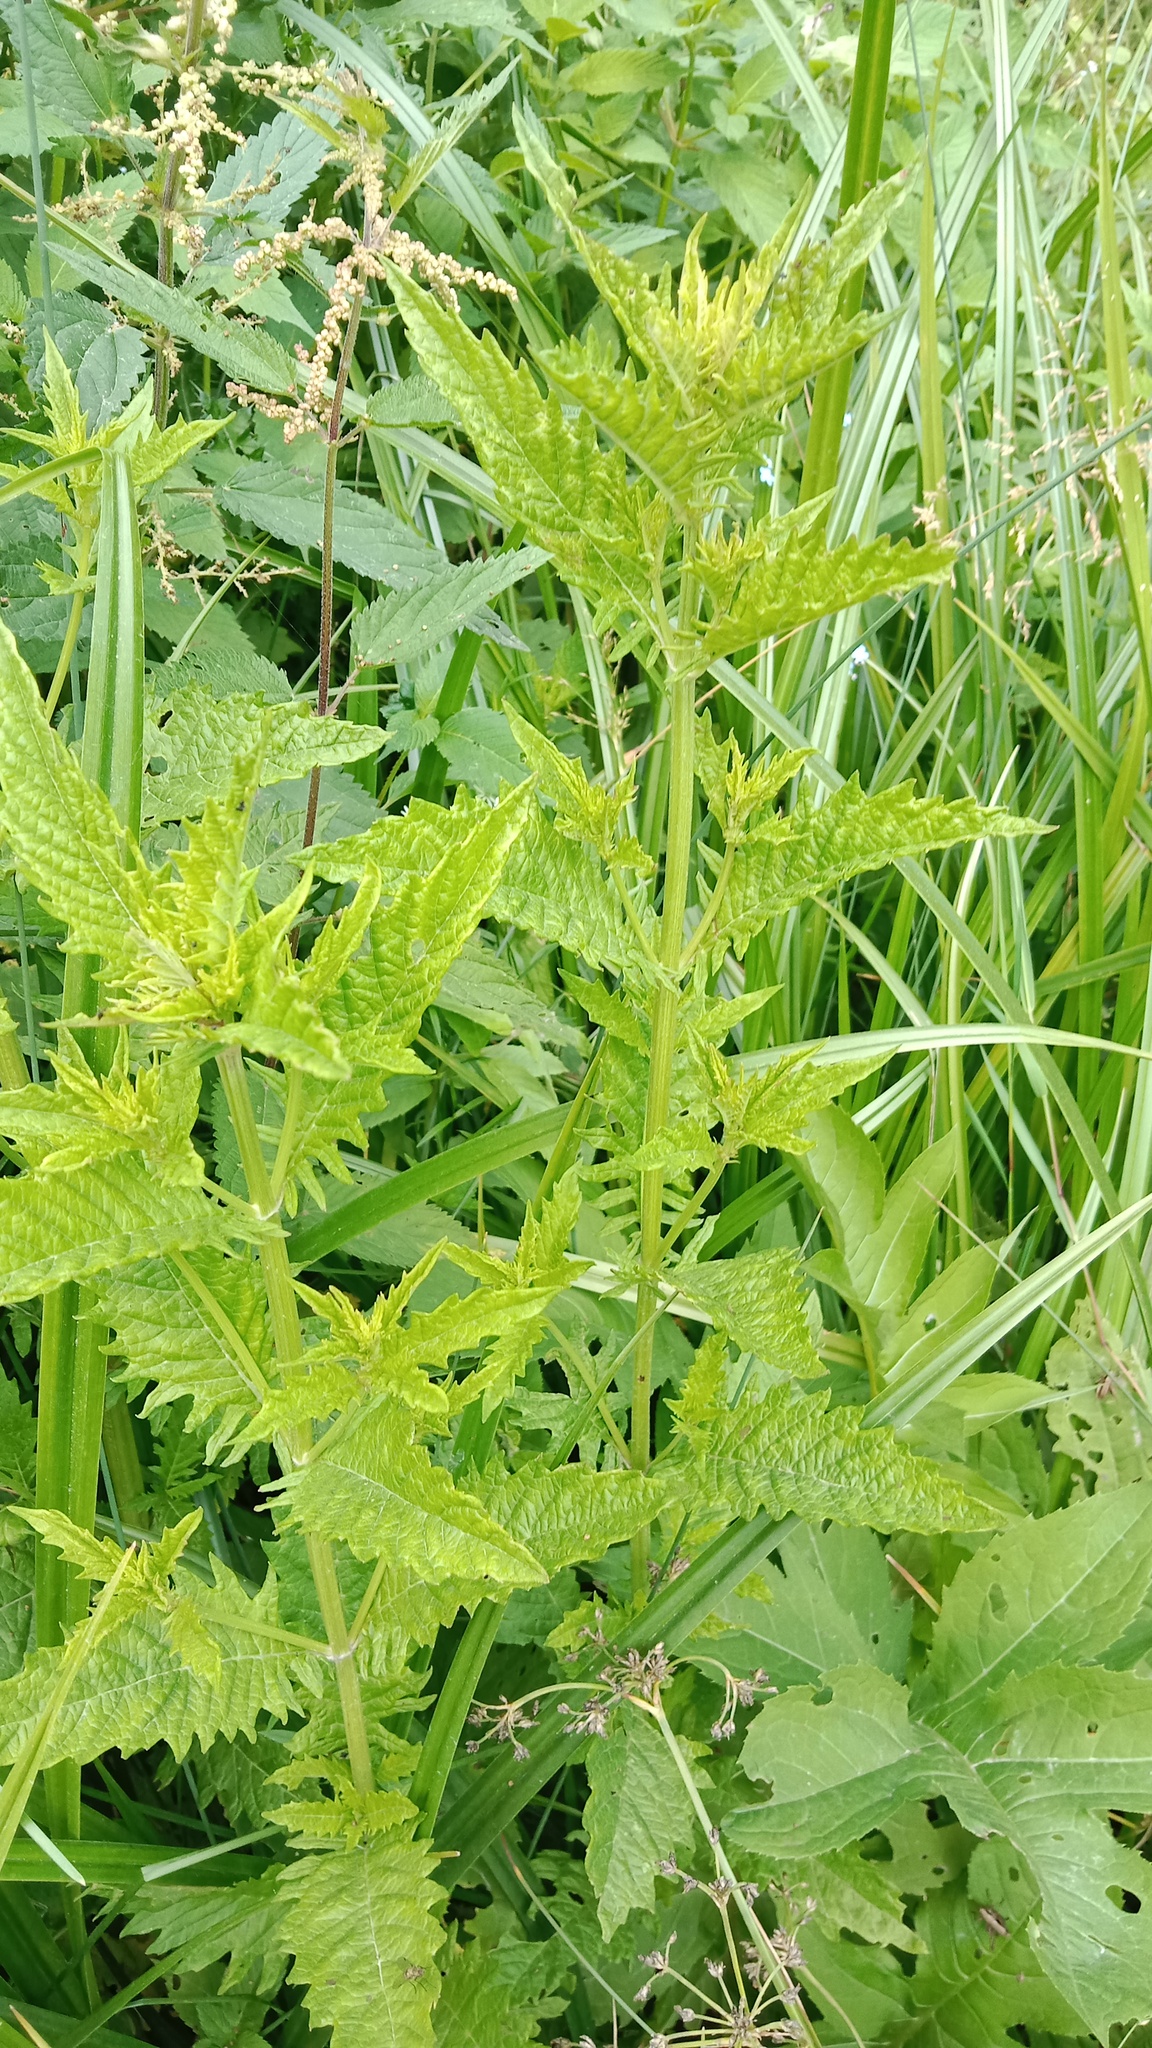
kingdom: Plantae
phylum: Tracheophyta
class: Magnoliopsida
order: Lamiales
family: Lamiaceae
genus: Lycopus
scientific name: Lycopus europaeus
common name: European bugleweed
